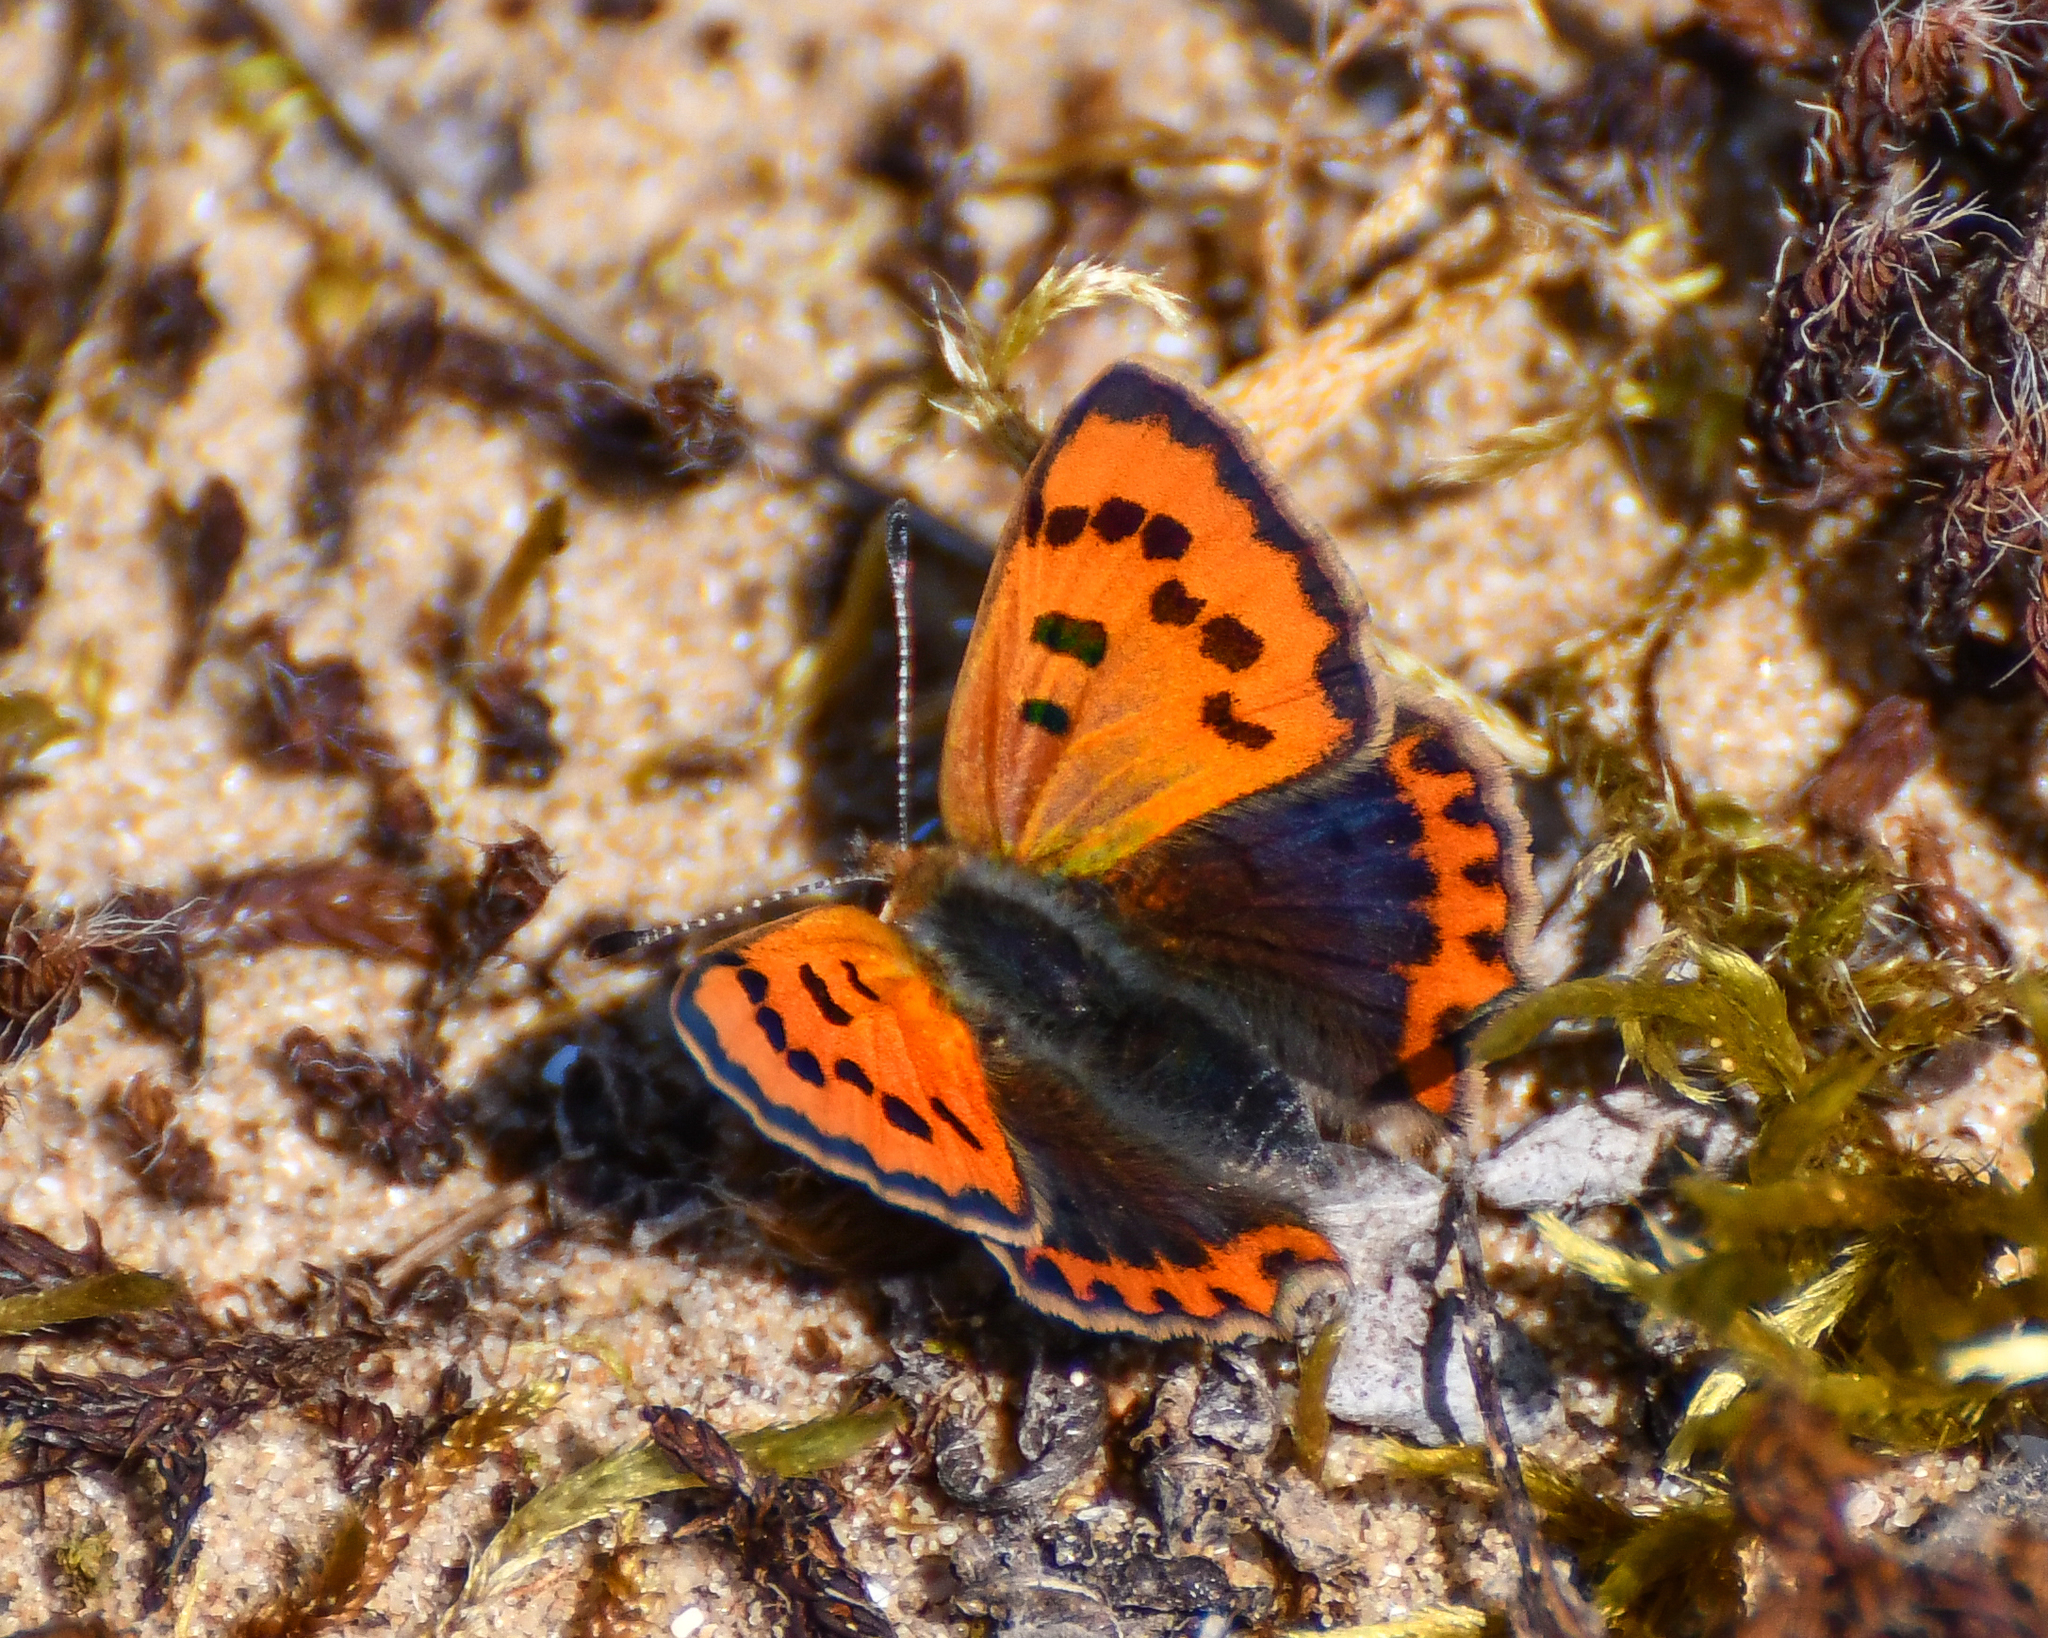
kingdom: Animalia
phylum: Arthropoda
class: Insecta
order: Lepidoptera
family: Lycaenidae
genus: Lycaena
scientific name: Lycaena phlaeas
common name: Small copper
